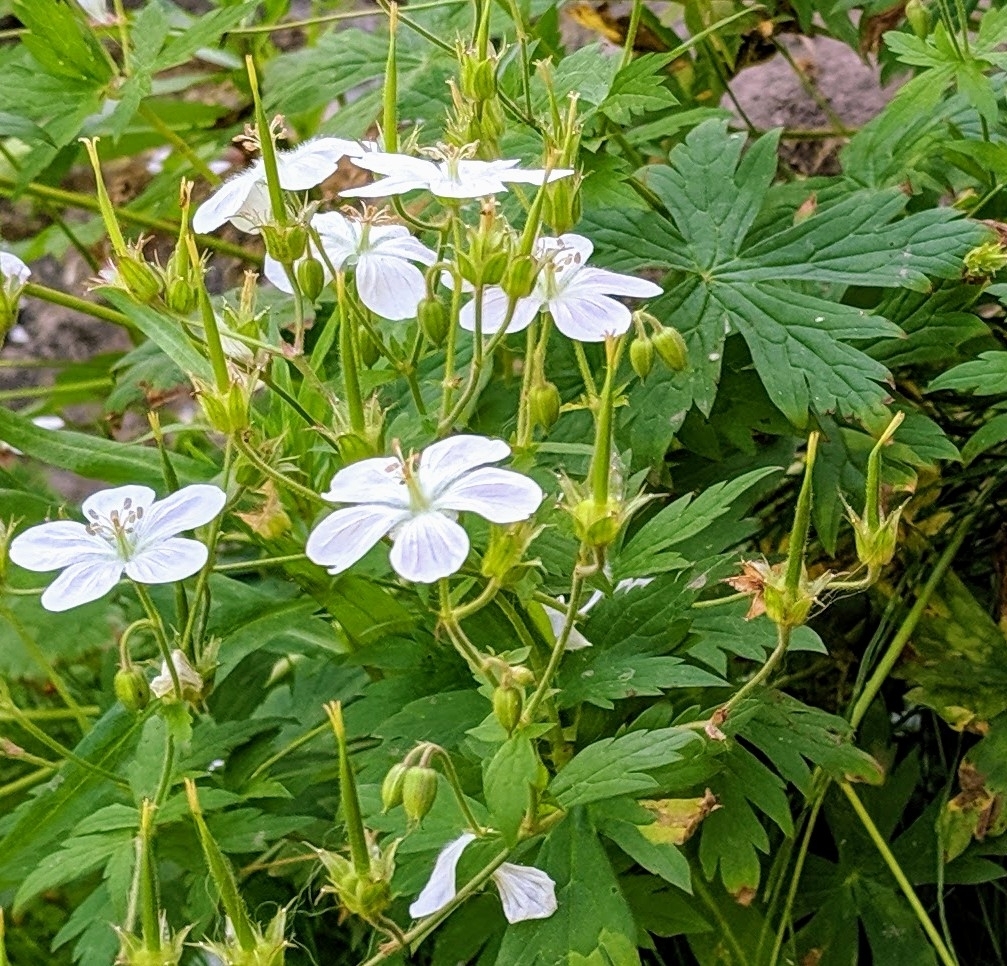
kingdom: Plantae
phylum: Tracheophyta
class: Magnoliopsida
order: Geraniales
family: Geraniaceae
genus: Geranium
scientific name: Geranium richardsonii
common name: Richardson's crane's-bill
